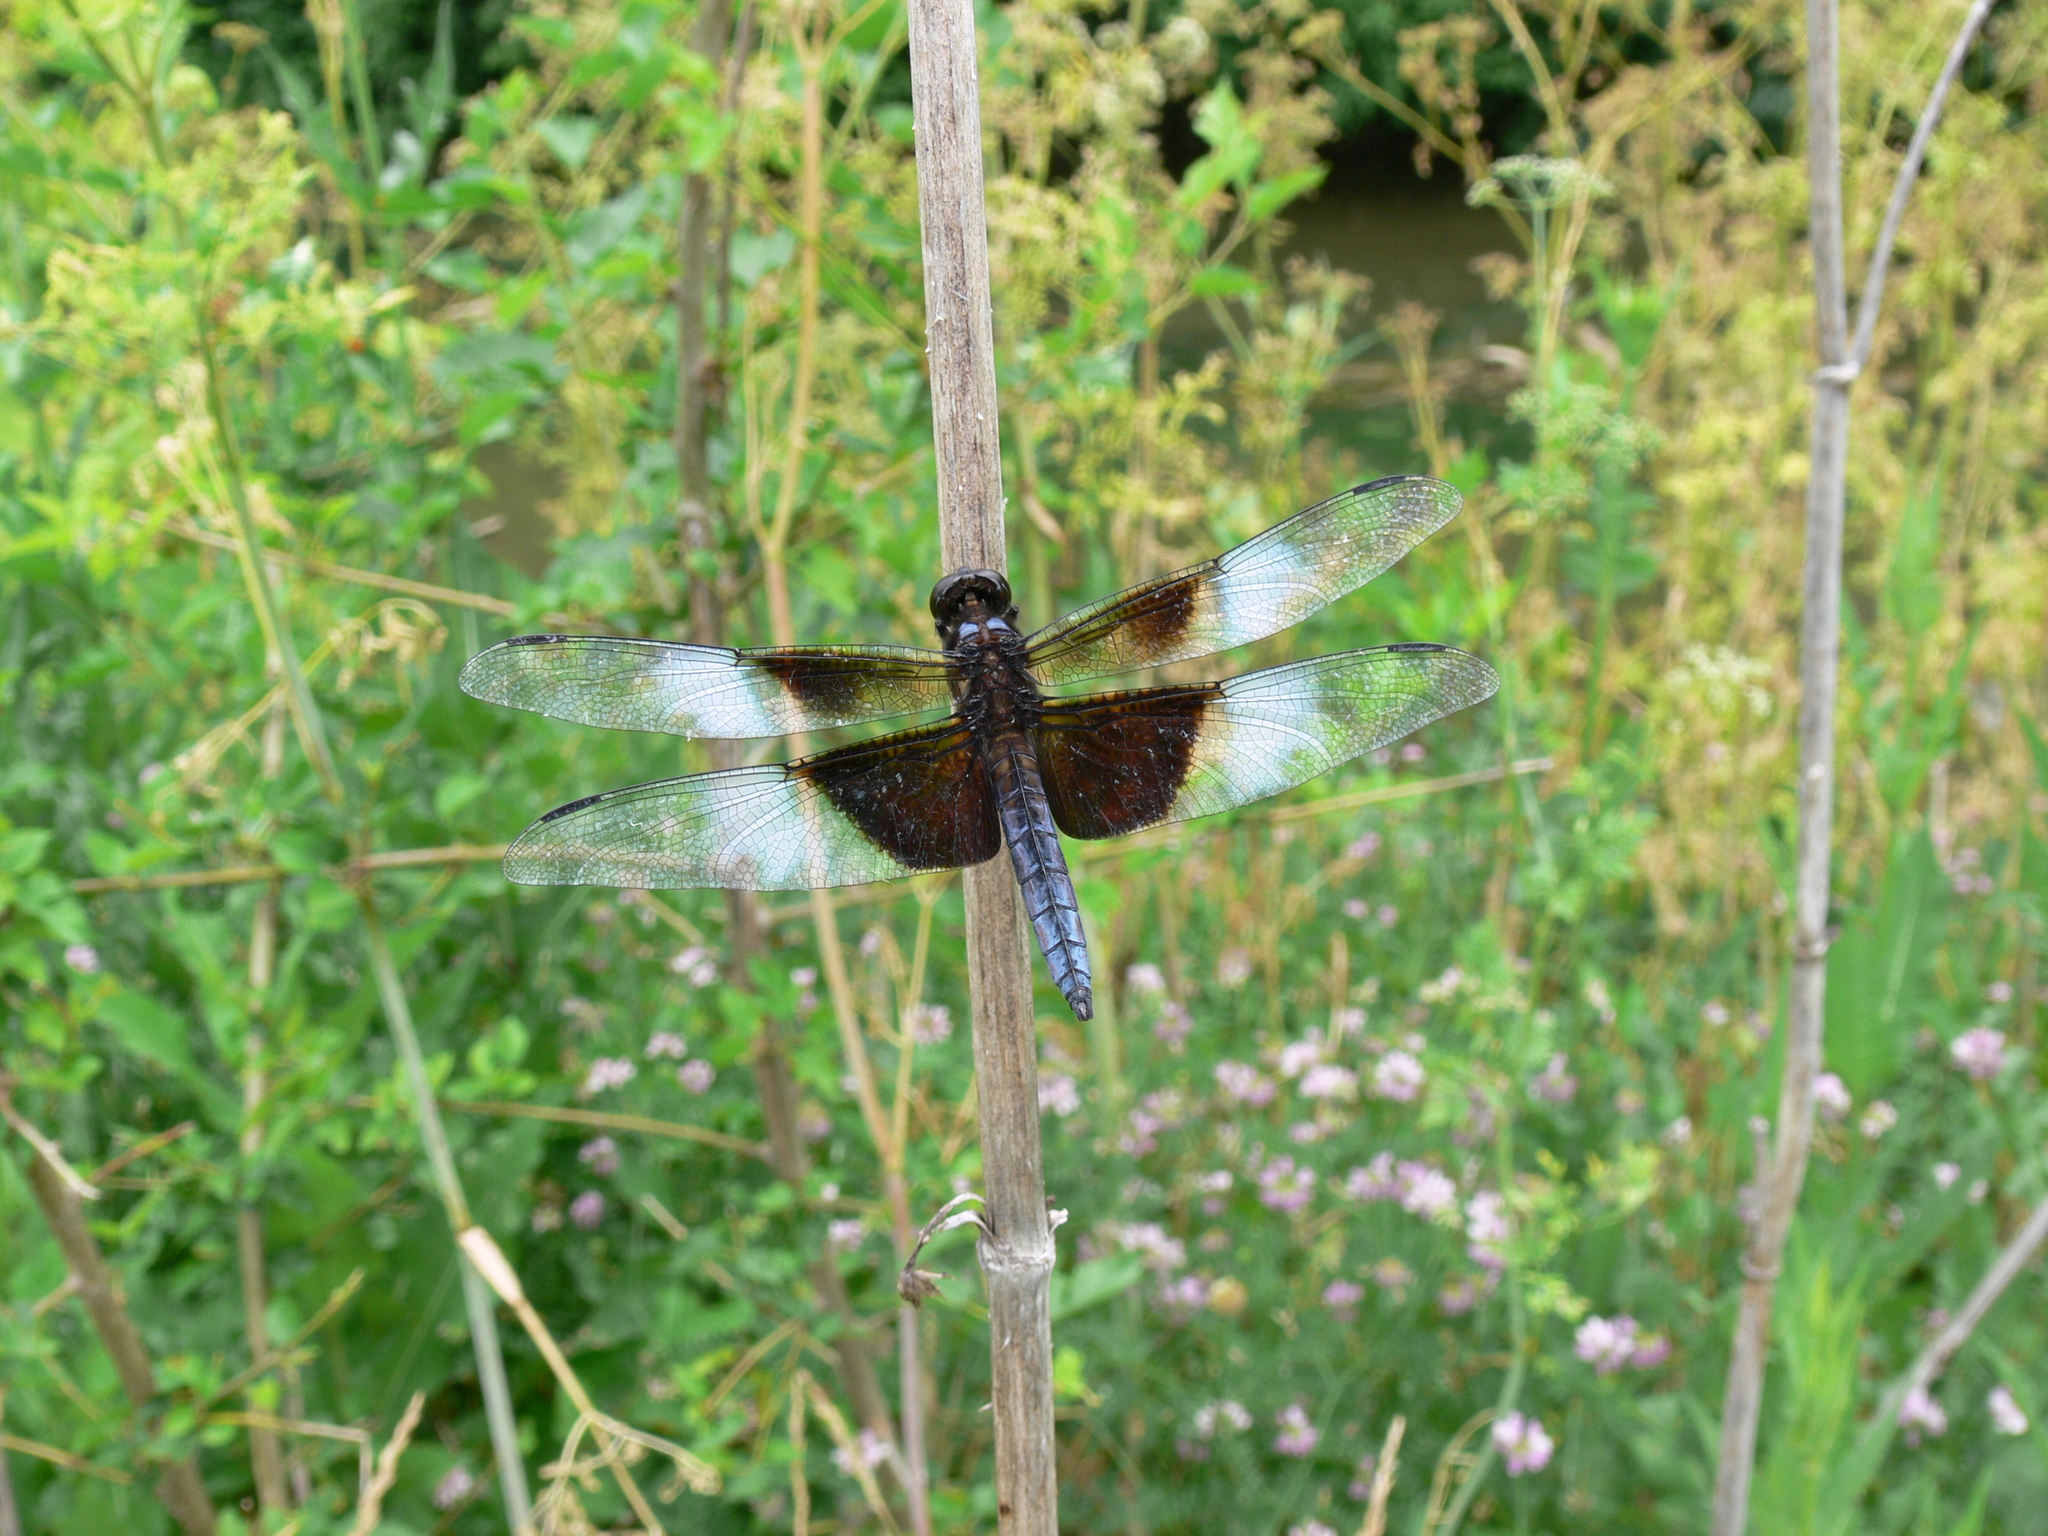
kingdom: Animalia
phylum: Arthropoda
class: Insecta
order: Odonata
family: Libellulidae
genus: Libellula
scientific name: Libellula luctuosa
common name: Widow skimmer
